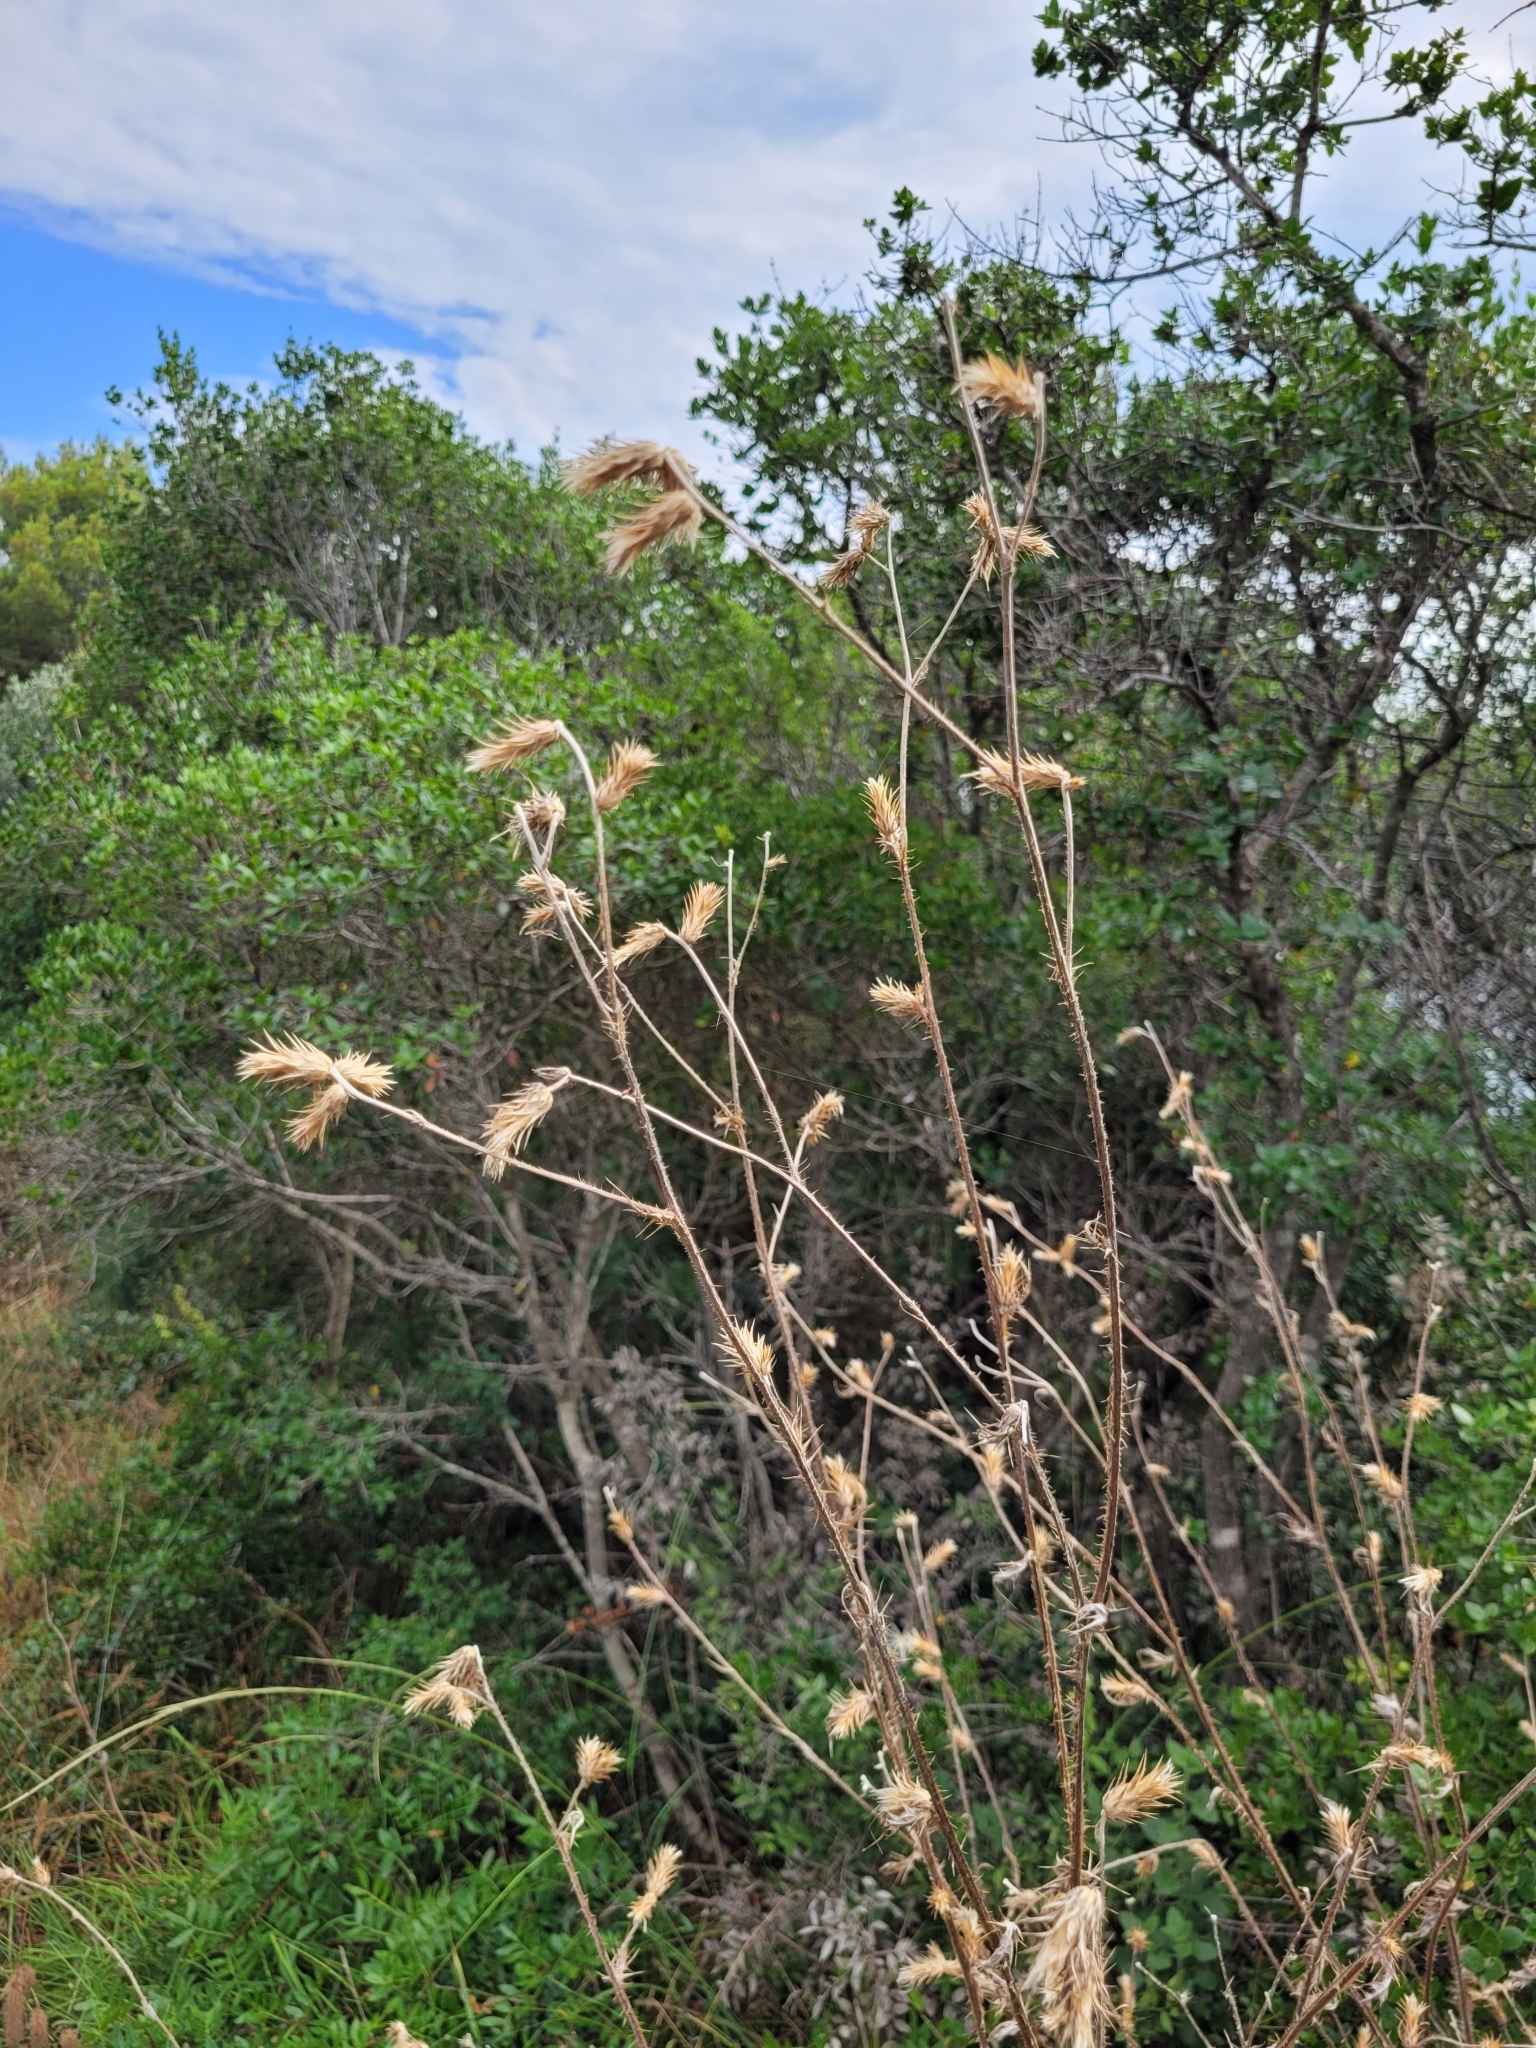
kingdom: Plantae
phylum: Tracheophyta
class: Magnoliopsida
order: Asterales
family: Asteraceae
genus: Carduus
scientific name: Carduus pycnocephalus
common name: Plymouth thistle
